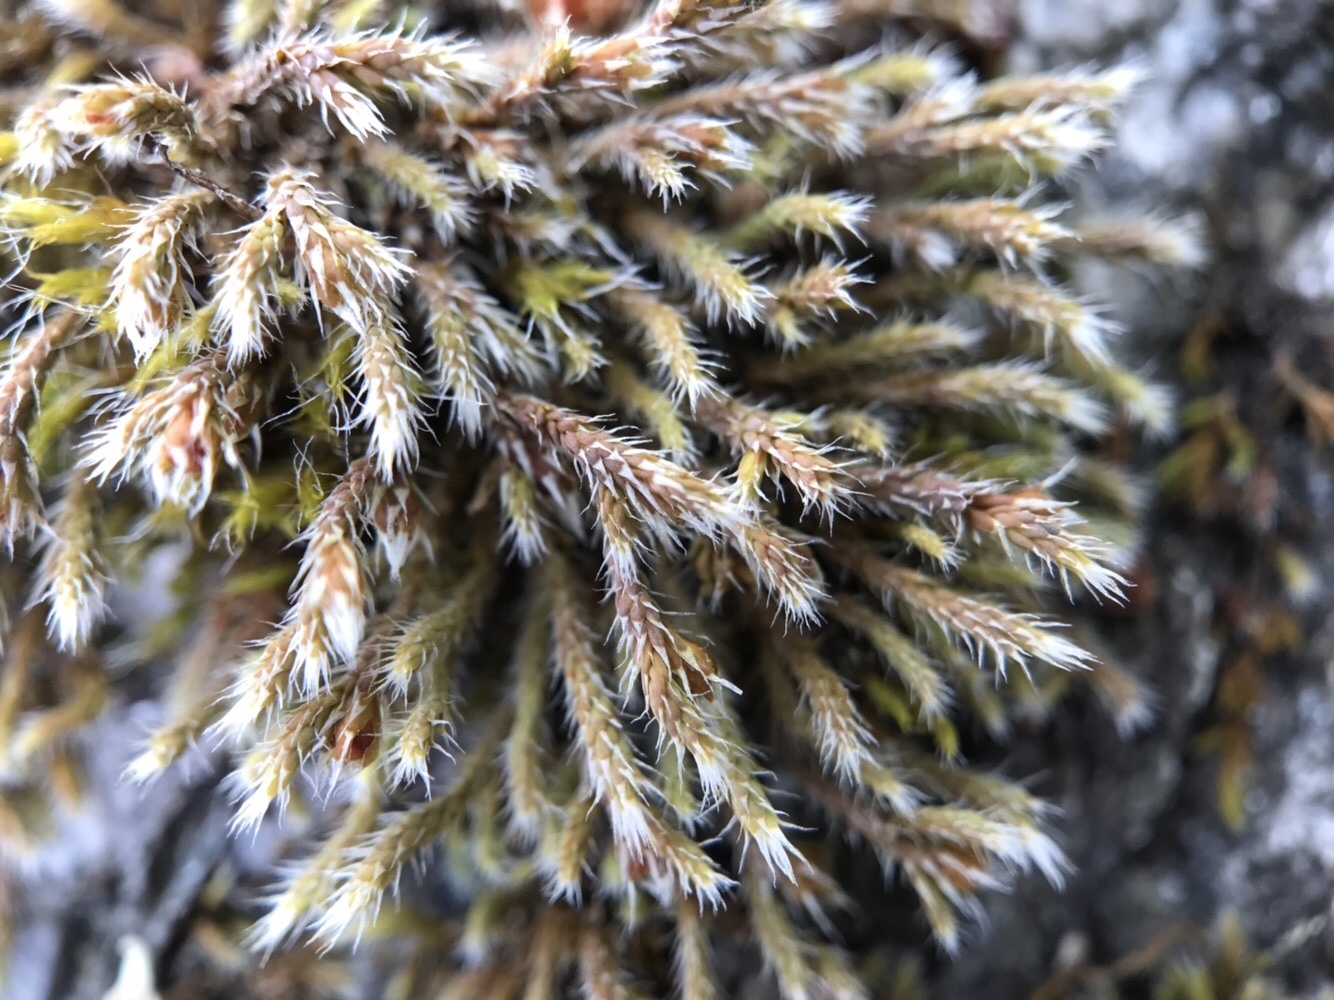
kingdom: Plantae
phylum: Bryophyta
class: Bryopsida
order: Hedwigiales
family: Hedwigiaceae
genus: Hedwigia
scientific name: Hedwigia stellata
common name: Starry hoar-moss
